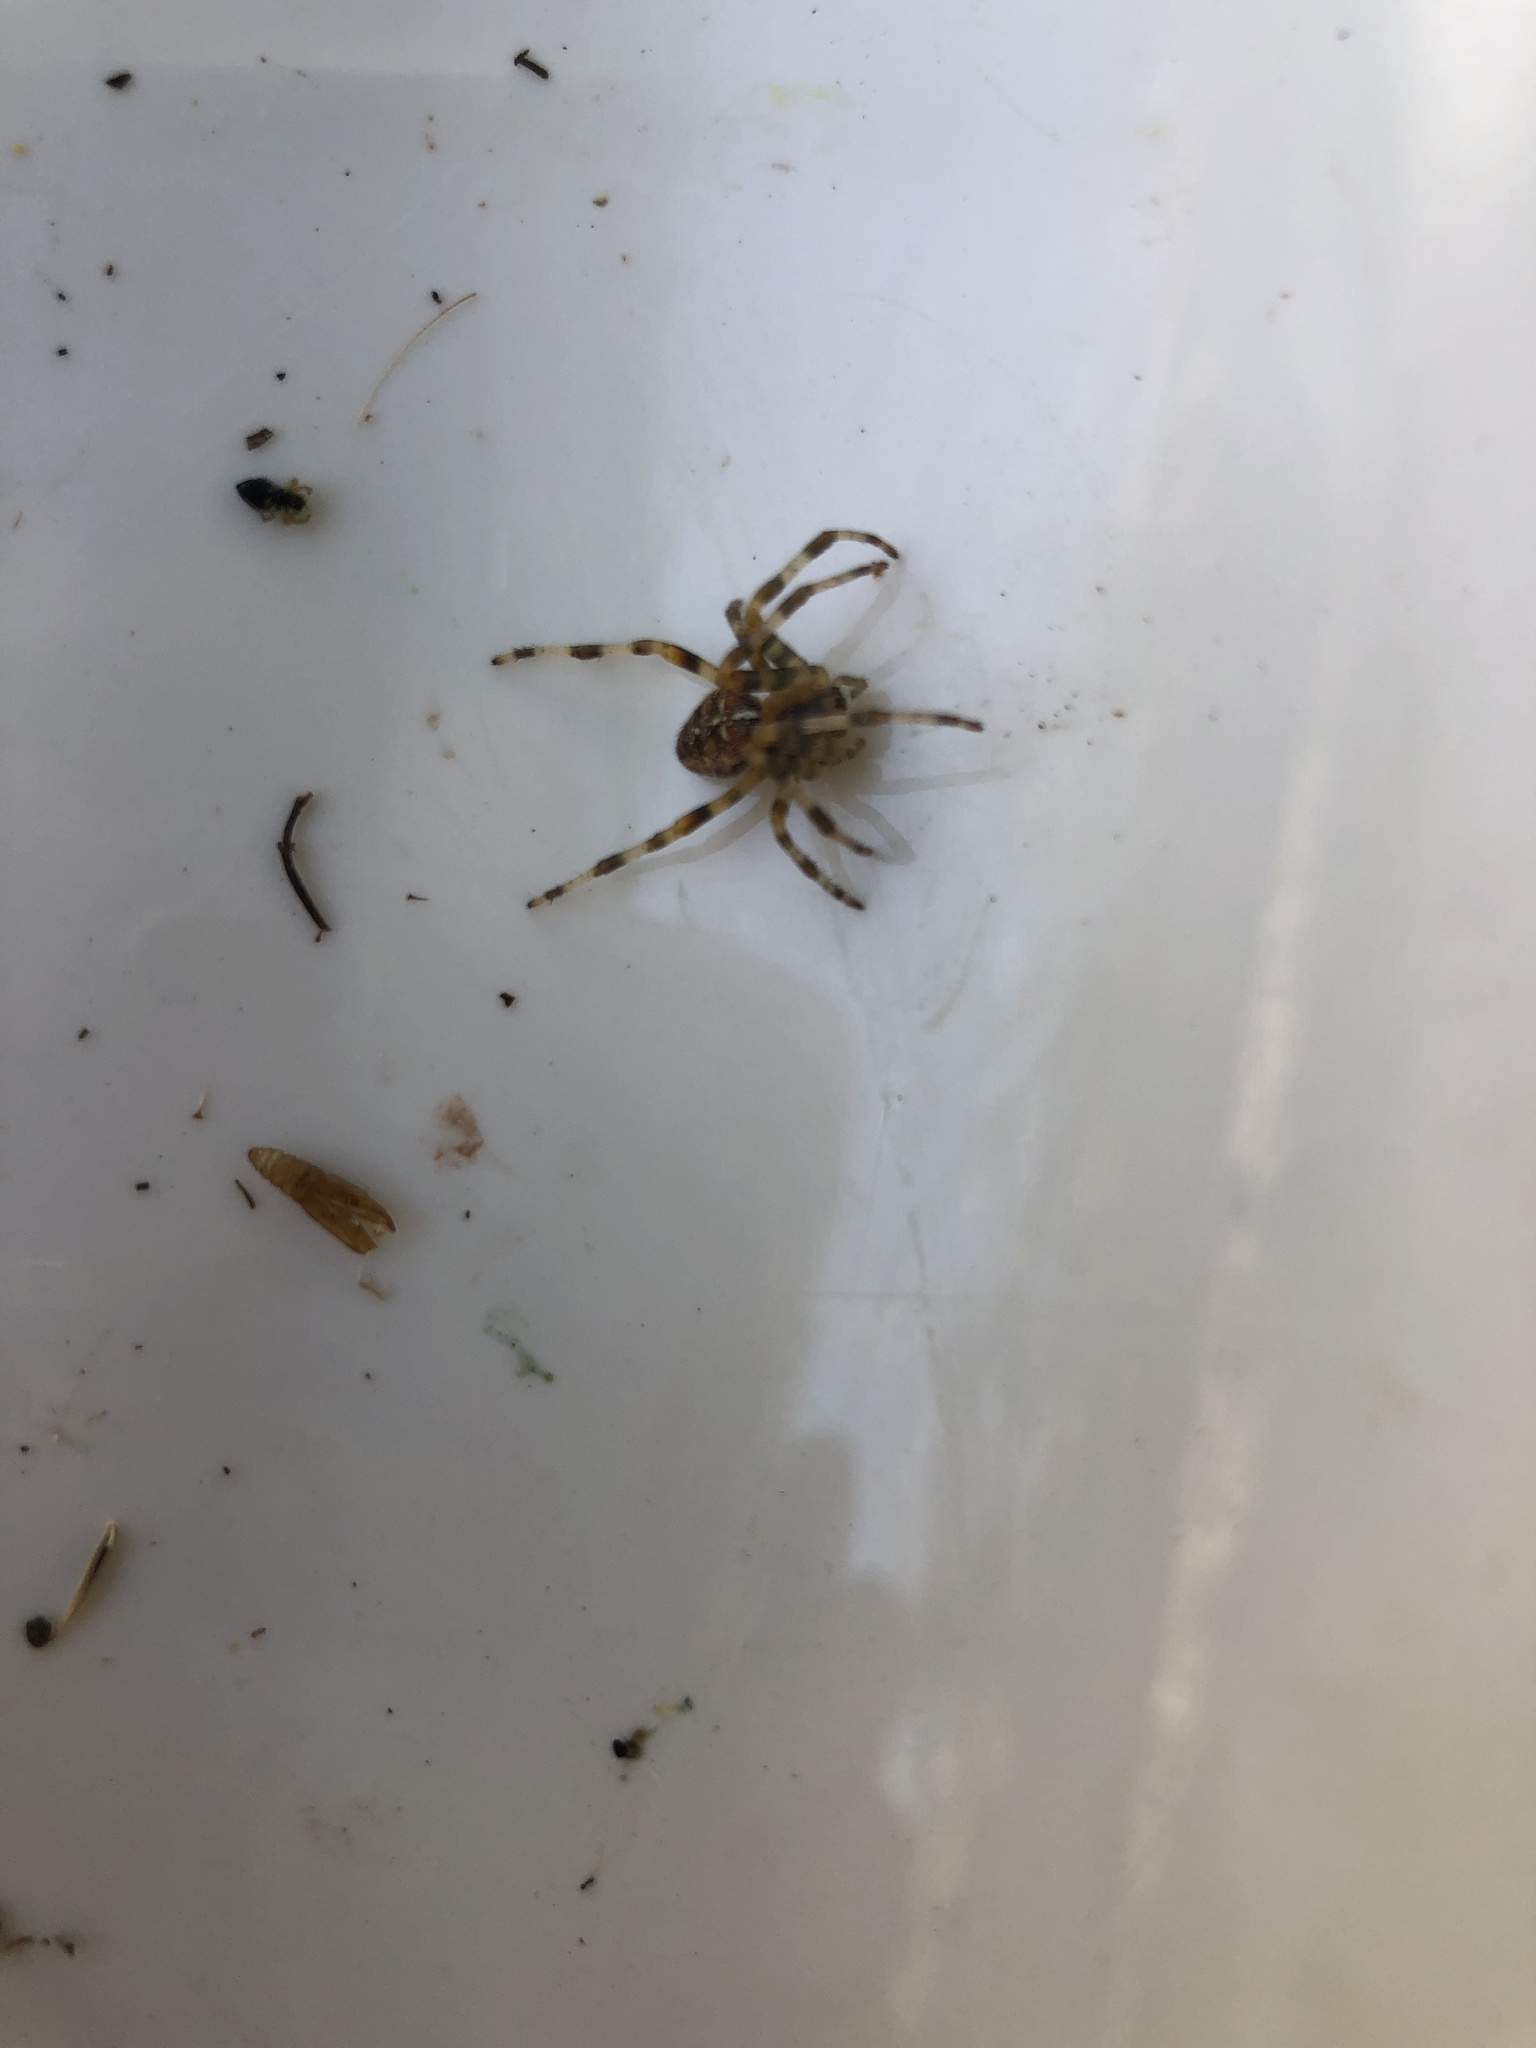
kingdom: Animalia
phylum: Arthropoda
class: Arachnida
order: Araneae
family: Araneidae
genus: Araneus
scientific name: Araneus diadematus
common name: Cross orbweaver
